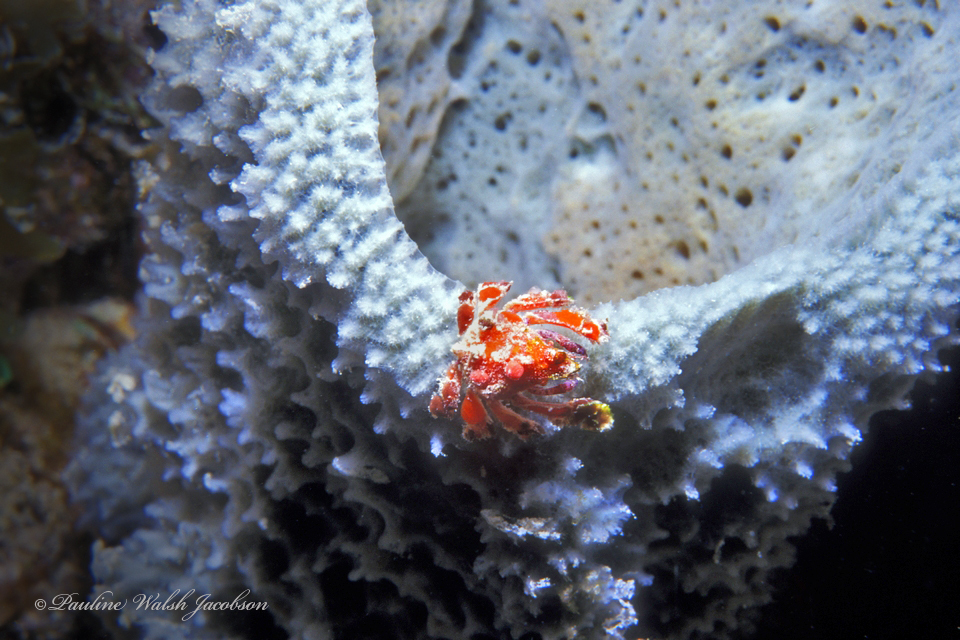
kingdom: Animalia
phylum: Arthropoda
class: Malacostraca
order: Decapoda
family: Epialtidae
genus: Pelia
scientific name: Pelia mutica
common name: Cryptic teardrop crab
